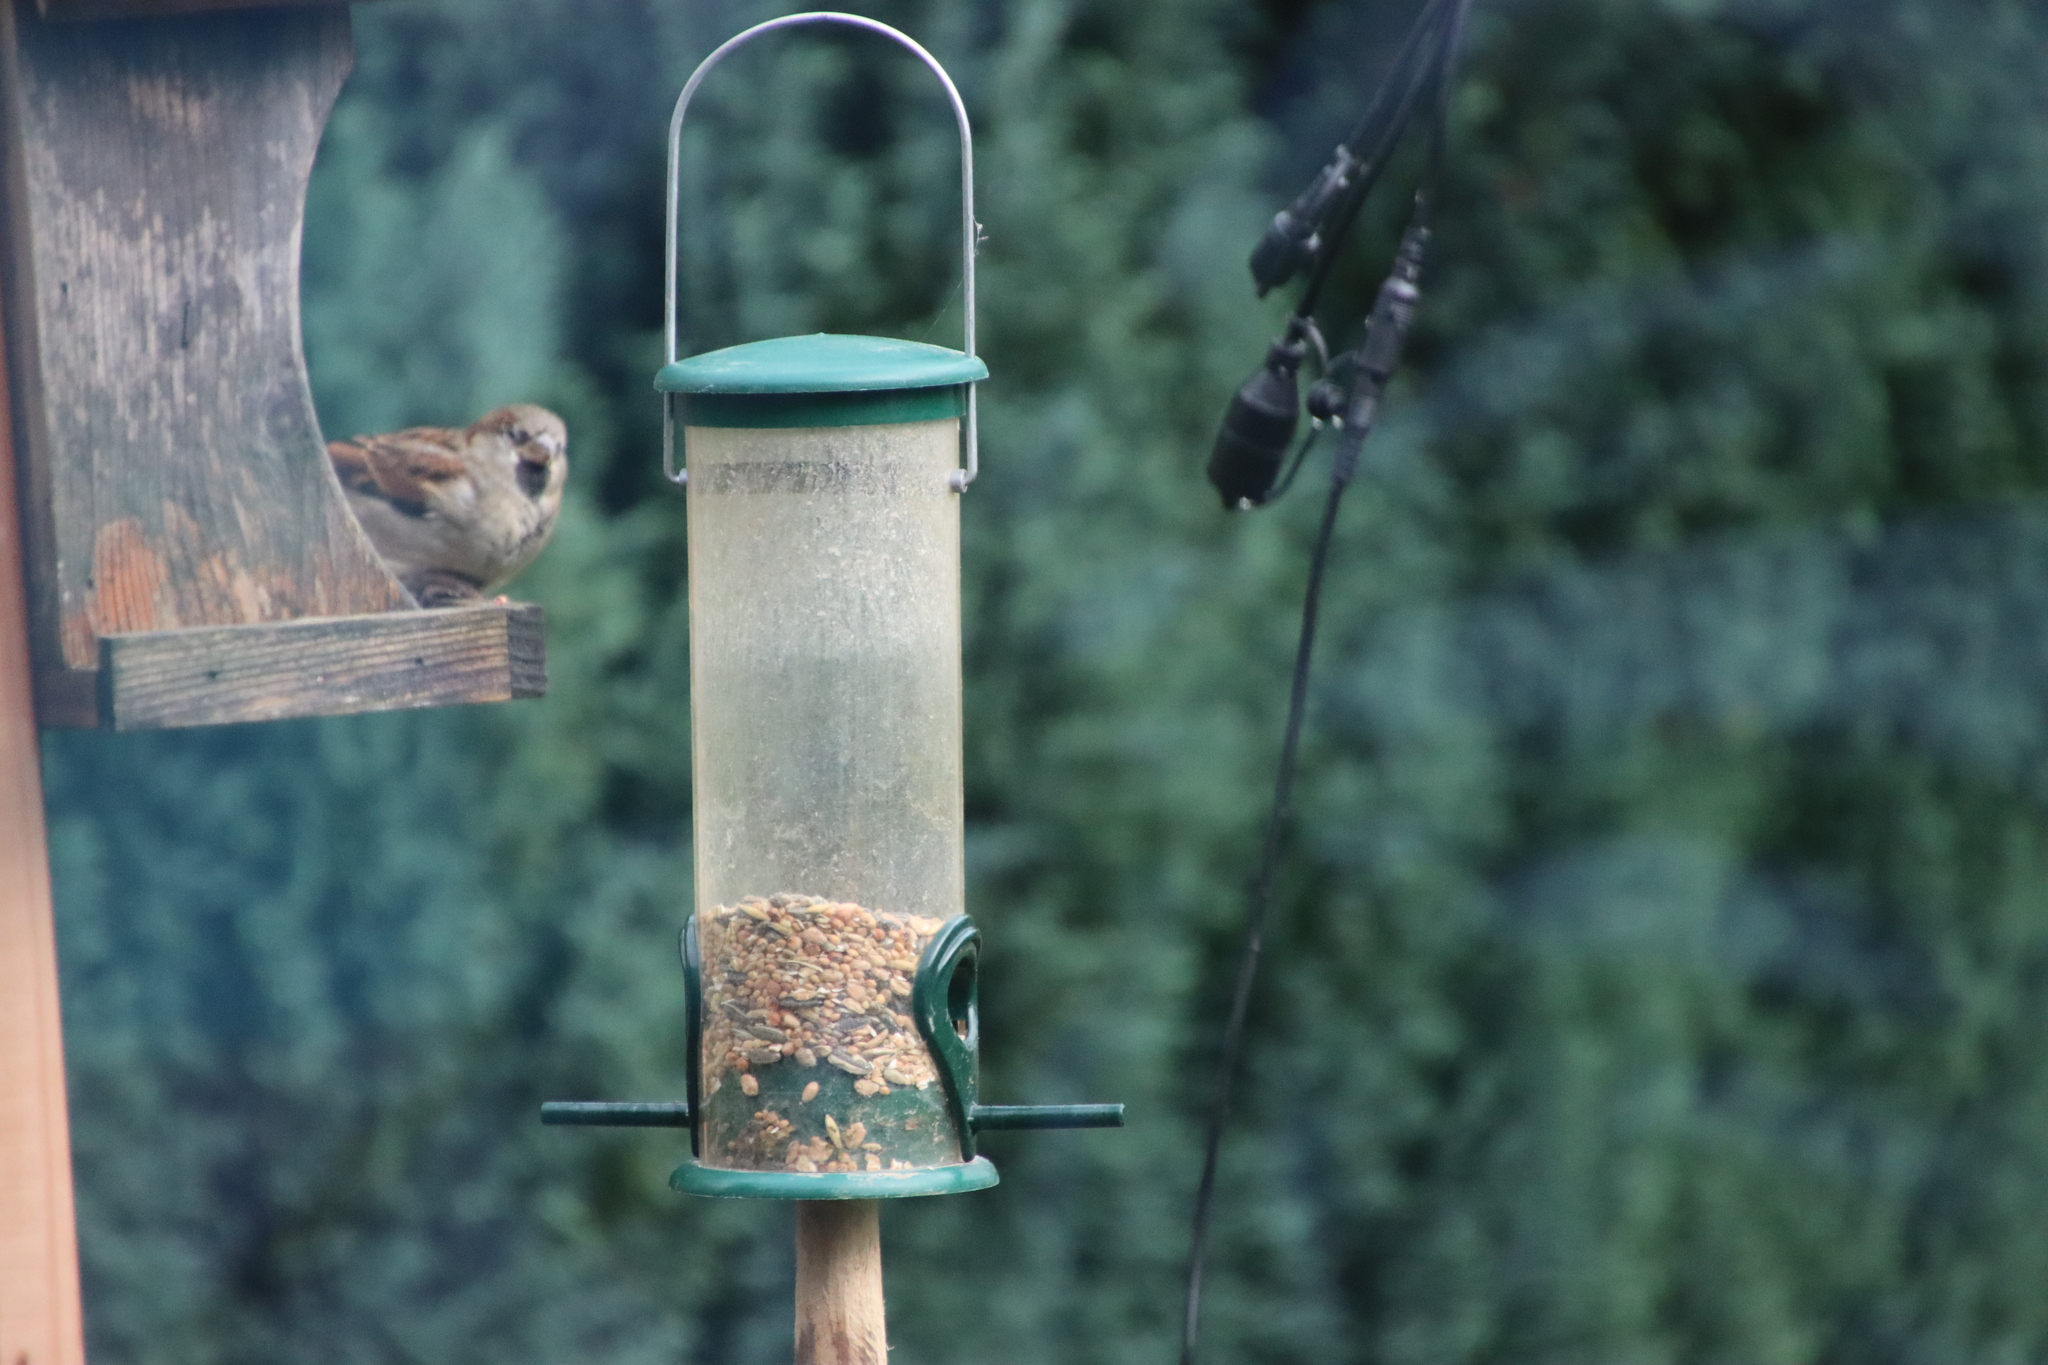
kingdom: Animalia
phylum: Chordata
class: Aves
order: Passeriformes
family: Passeridae
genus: Passer
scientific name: Passer domesticus
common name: House sparrow
